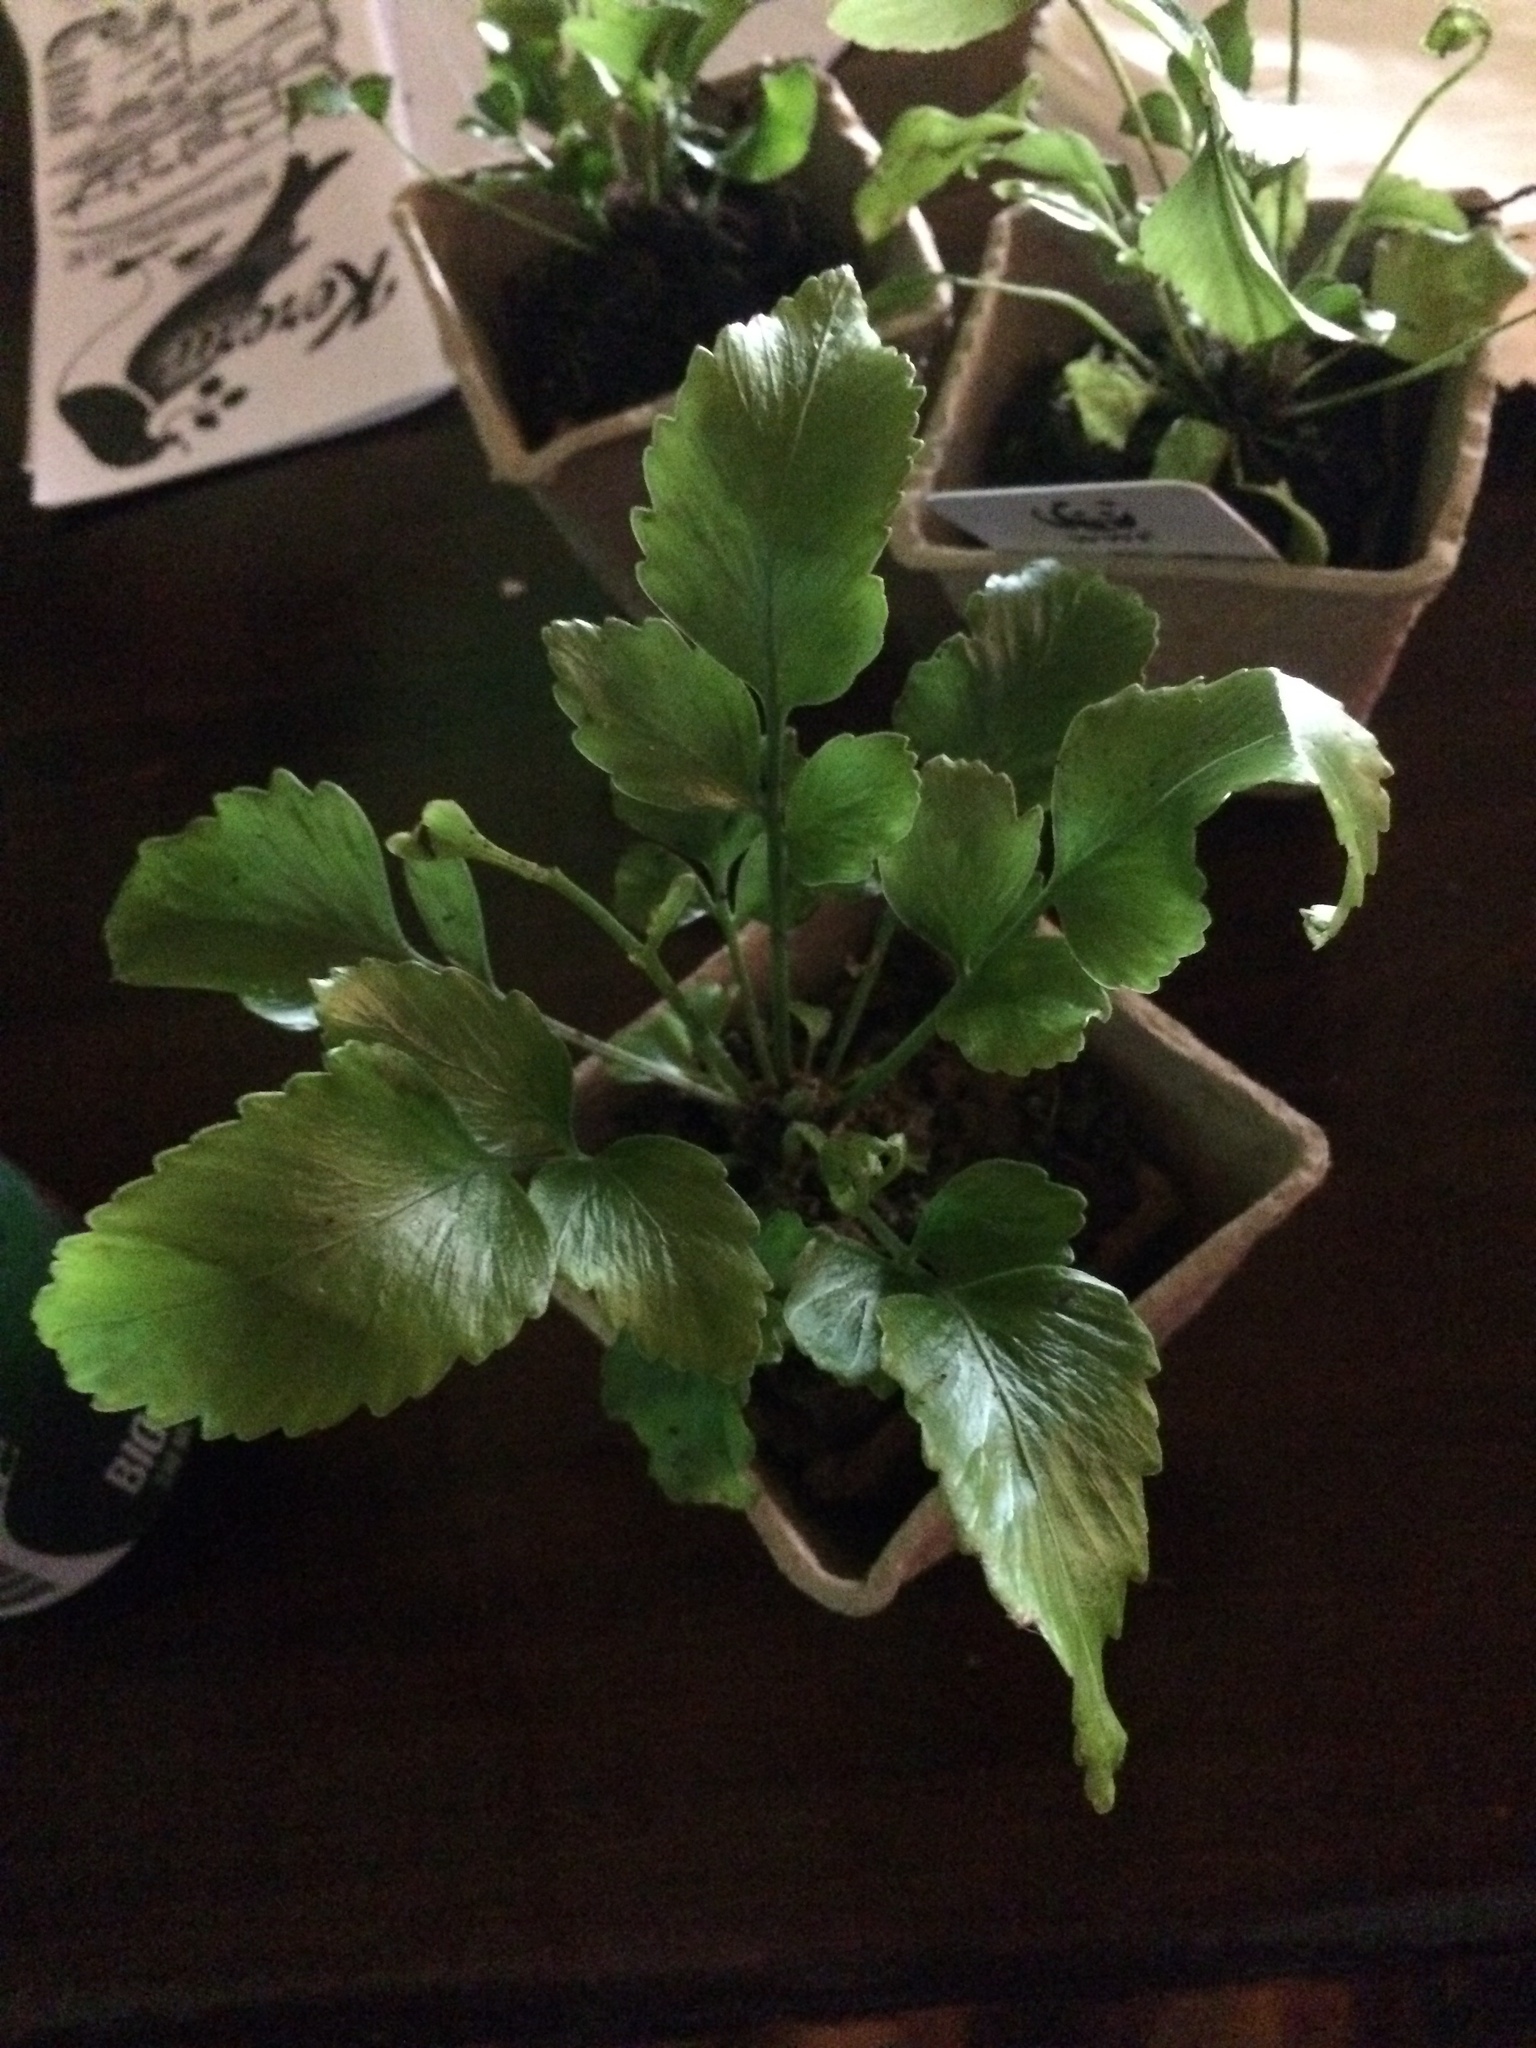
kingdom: Plantae
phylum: Tracheophyta
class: Polypodiopsida
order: Polypodiales
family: Aspleniaceae
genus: Asplenium
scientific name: Asplenium oblongifolium
